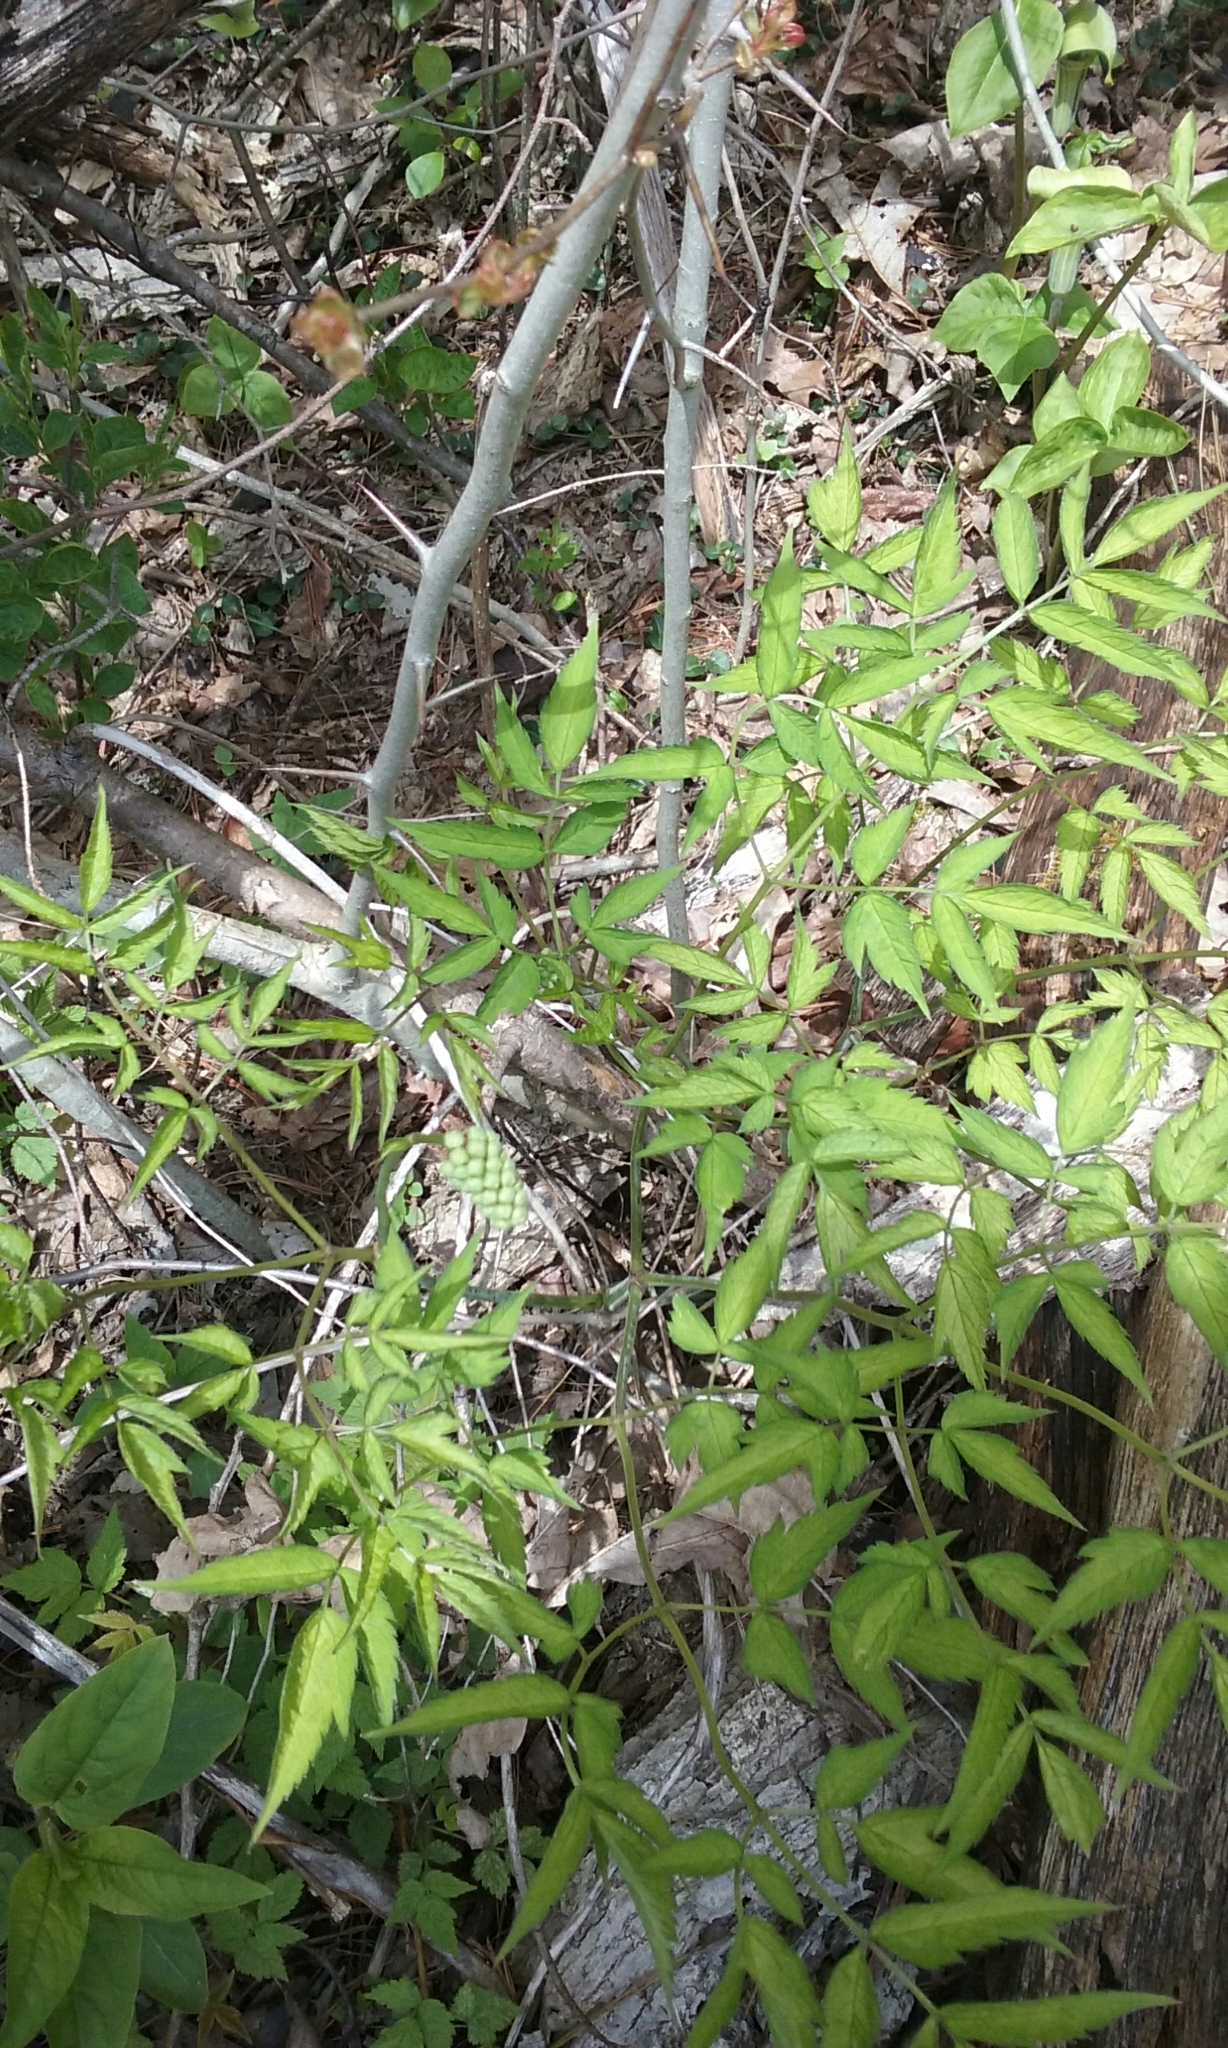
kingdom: Plantae
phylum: Tracheophyta
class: Magnoliopsida
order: Ranunculales
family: Ranunculaceae
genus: Actaea
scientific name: Actaea
